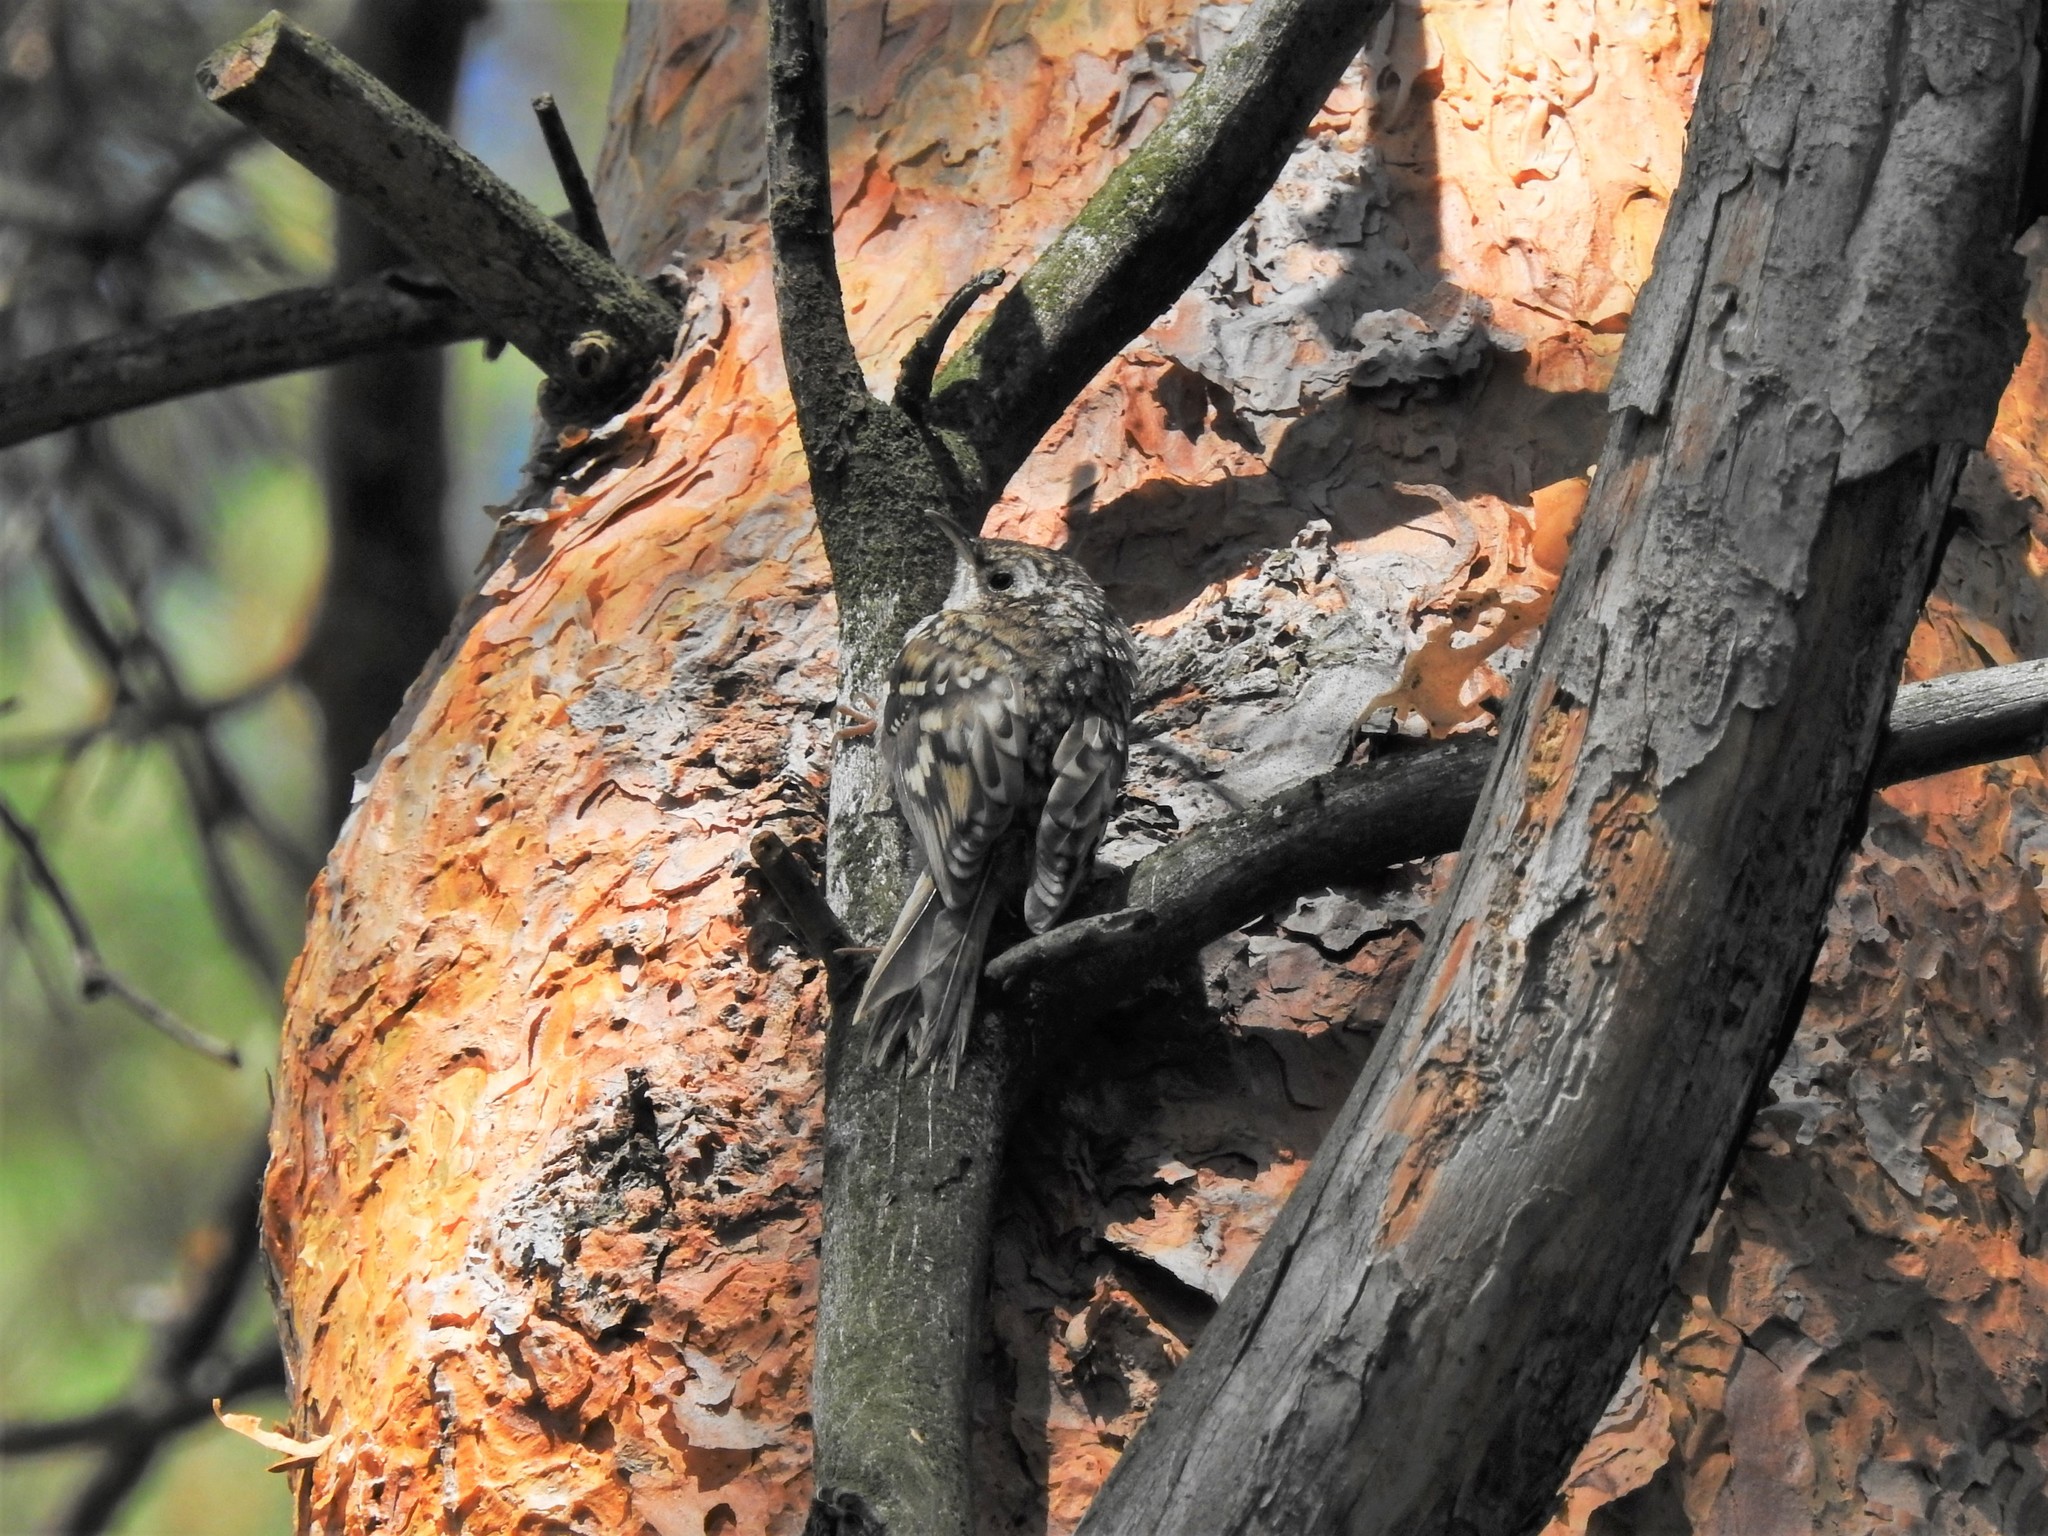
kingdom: Animalia
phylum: Chordata
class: Aves
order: Passeriformes
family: Certhiidae
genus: Certhia
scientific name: Certhia familiaris
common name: Eurasian treecreeper
